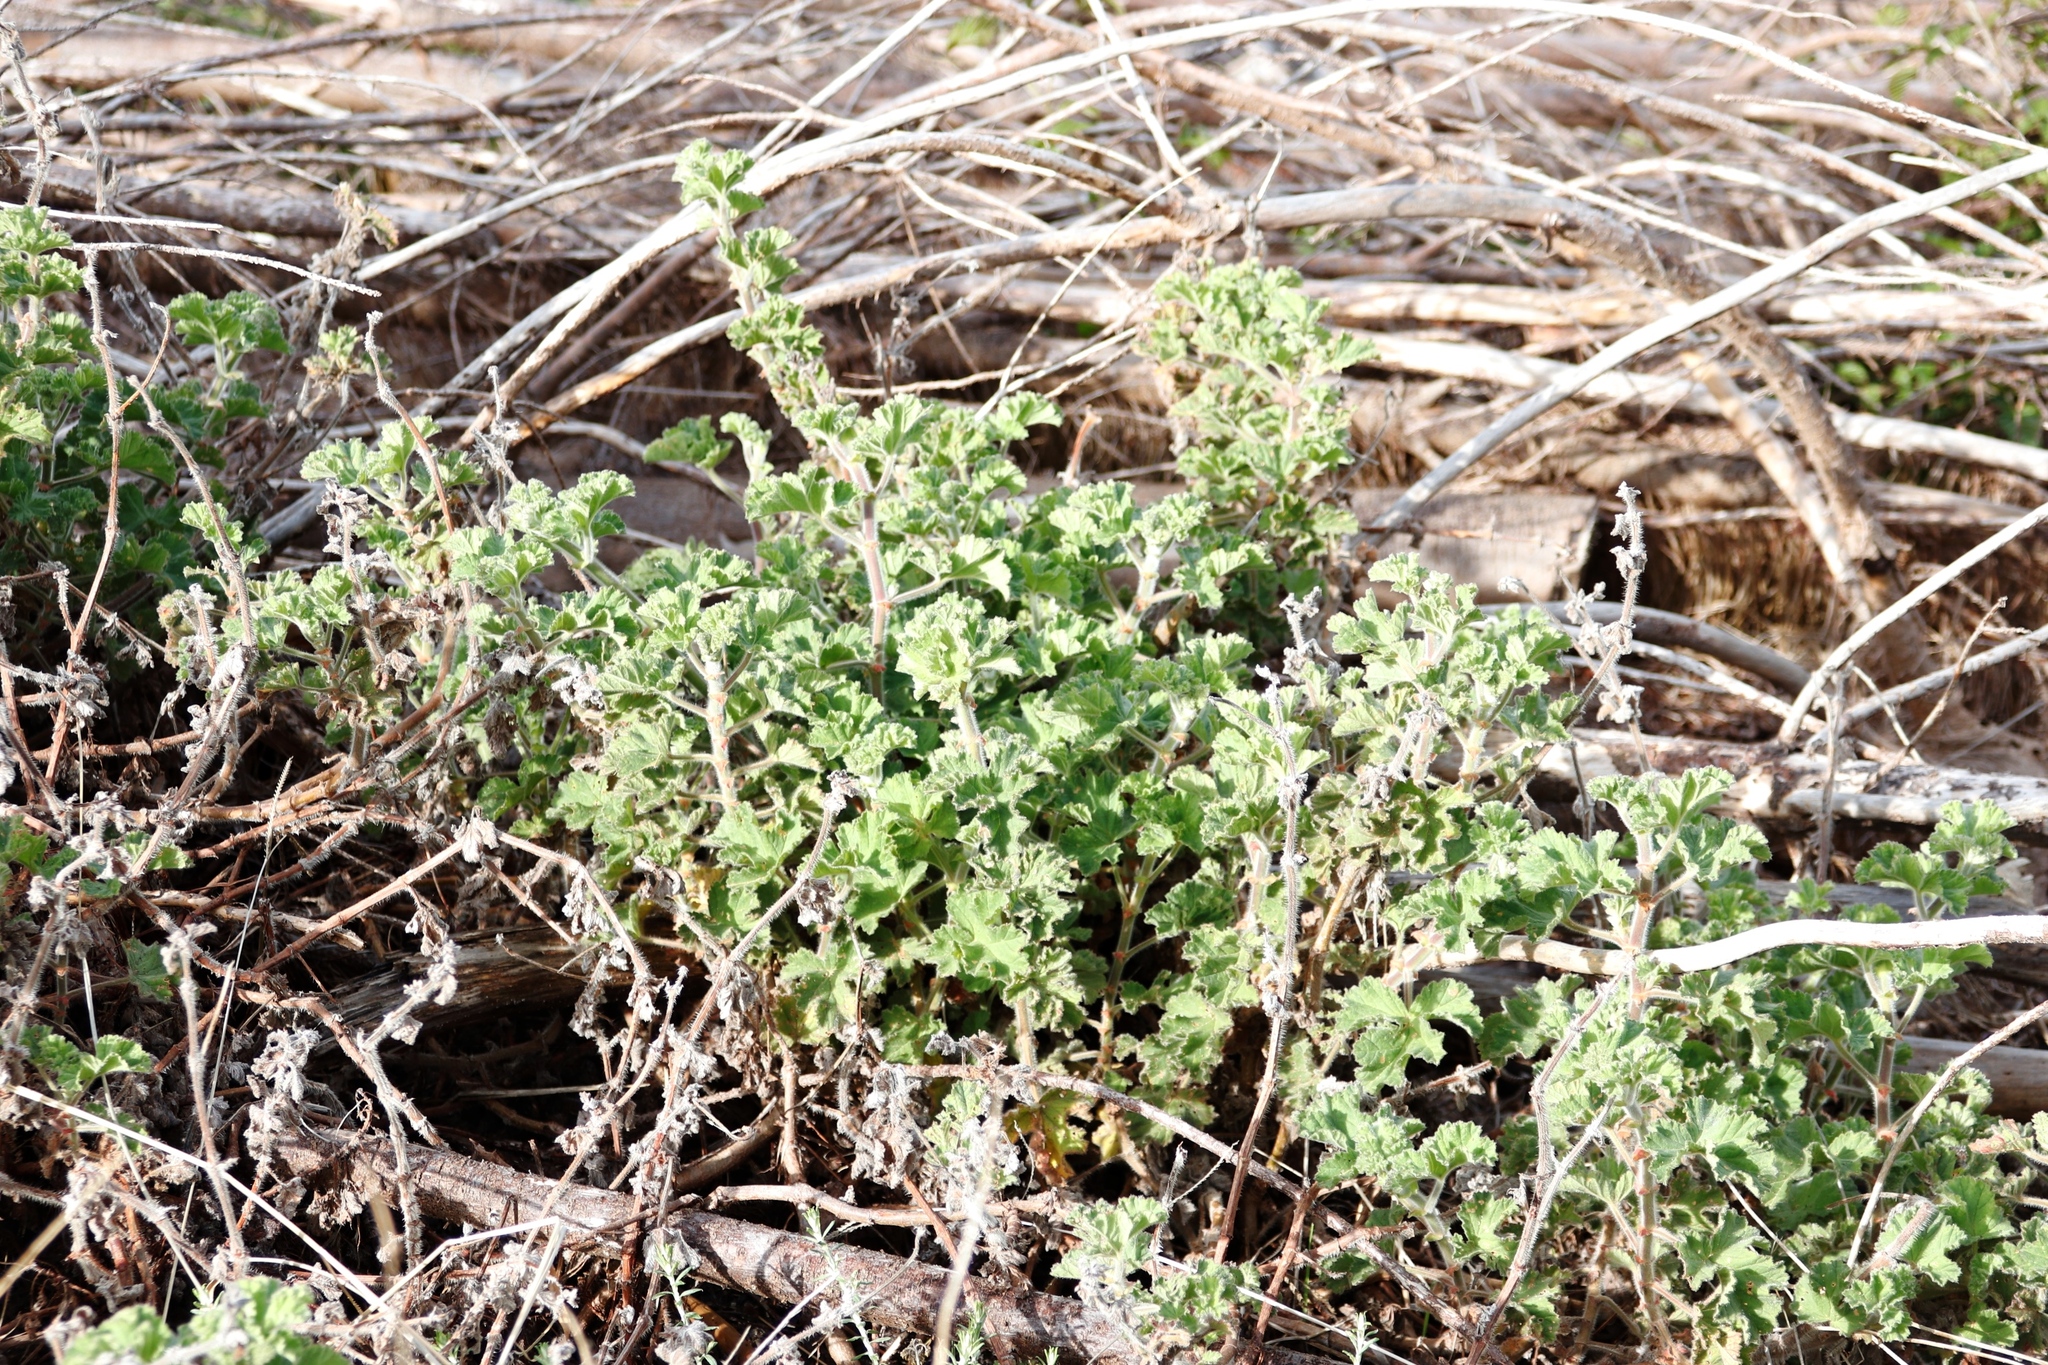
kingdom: Plantae
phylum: Tracheophyta
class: Magnoliopsida
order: Geraniales
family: Geraniaceae
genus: Pelargonium
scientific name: Pelargonium capitatum
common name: Rose scented geranium
